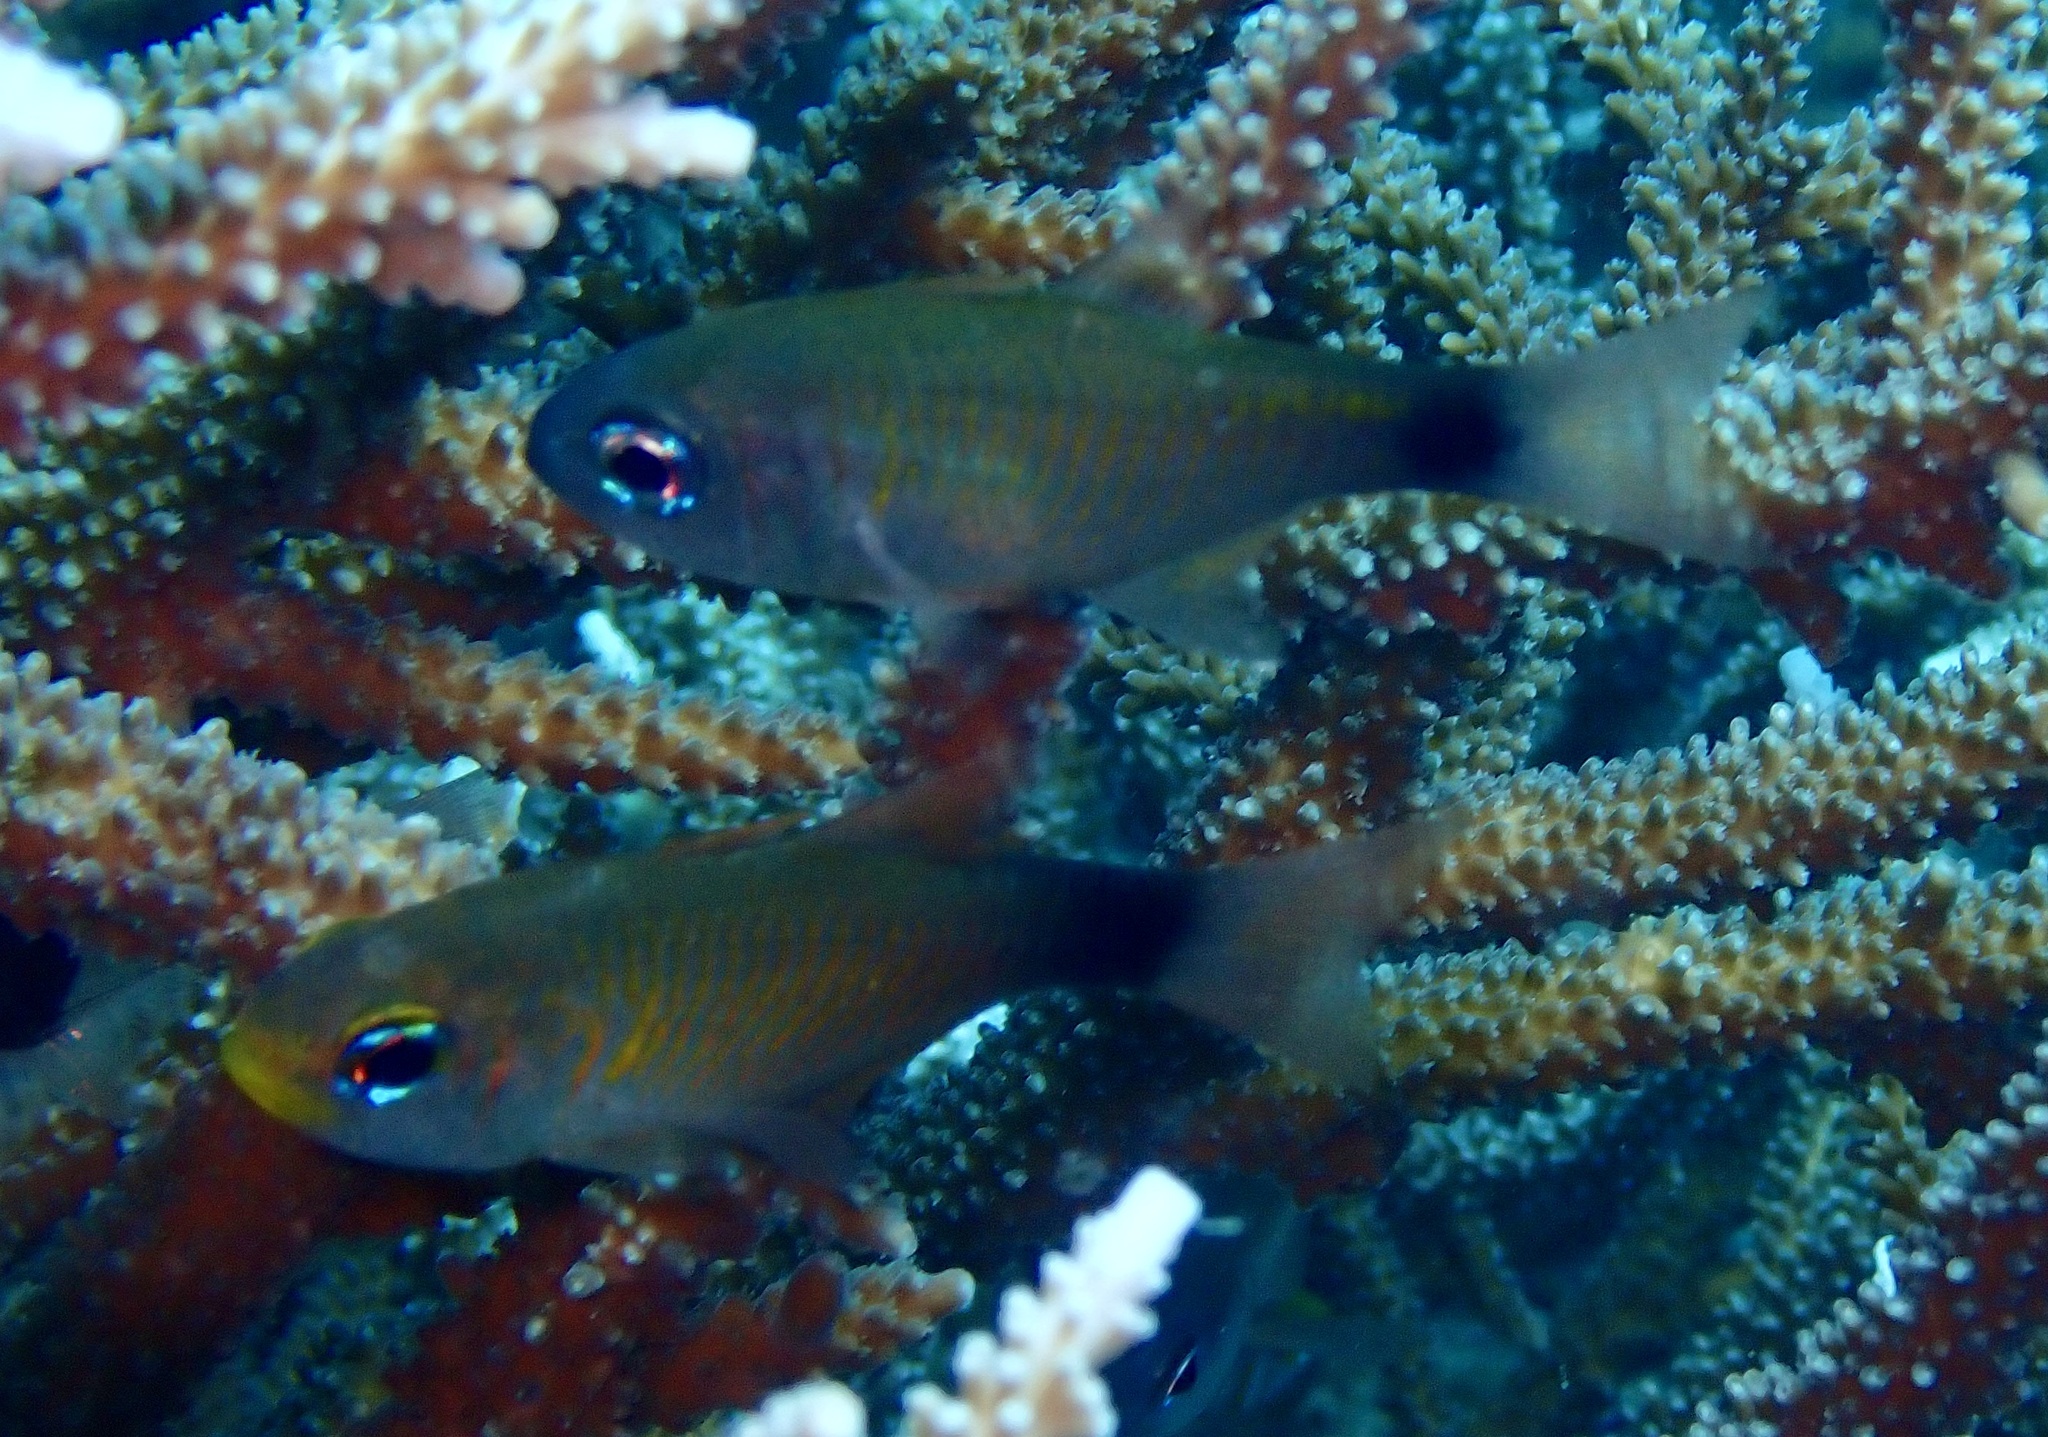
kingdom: Animalia
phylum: Chordata
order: Perciformes
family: Apogonidae
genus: Taeniamia
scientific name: Taeniamia macroptera
